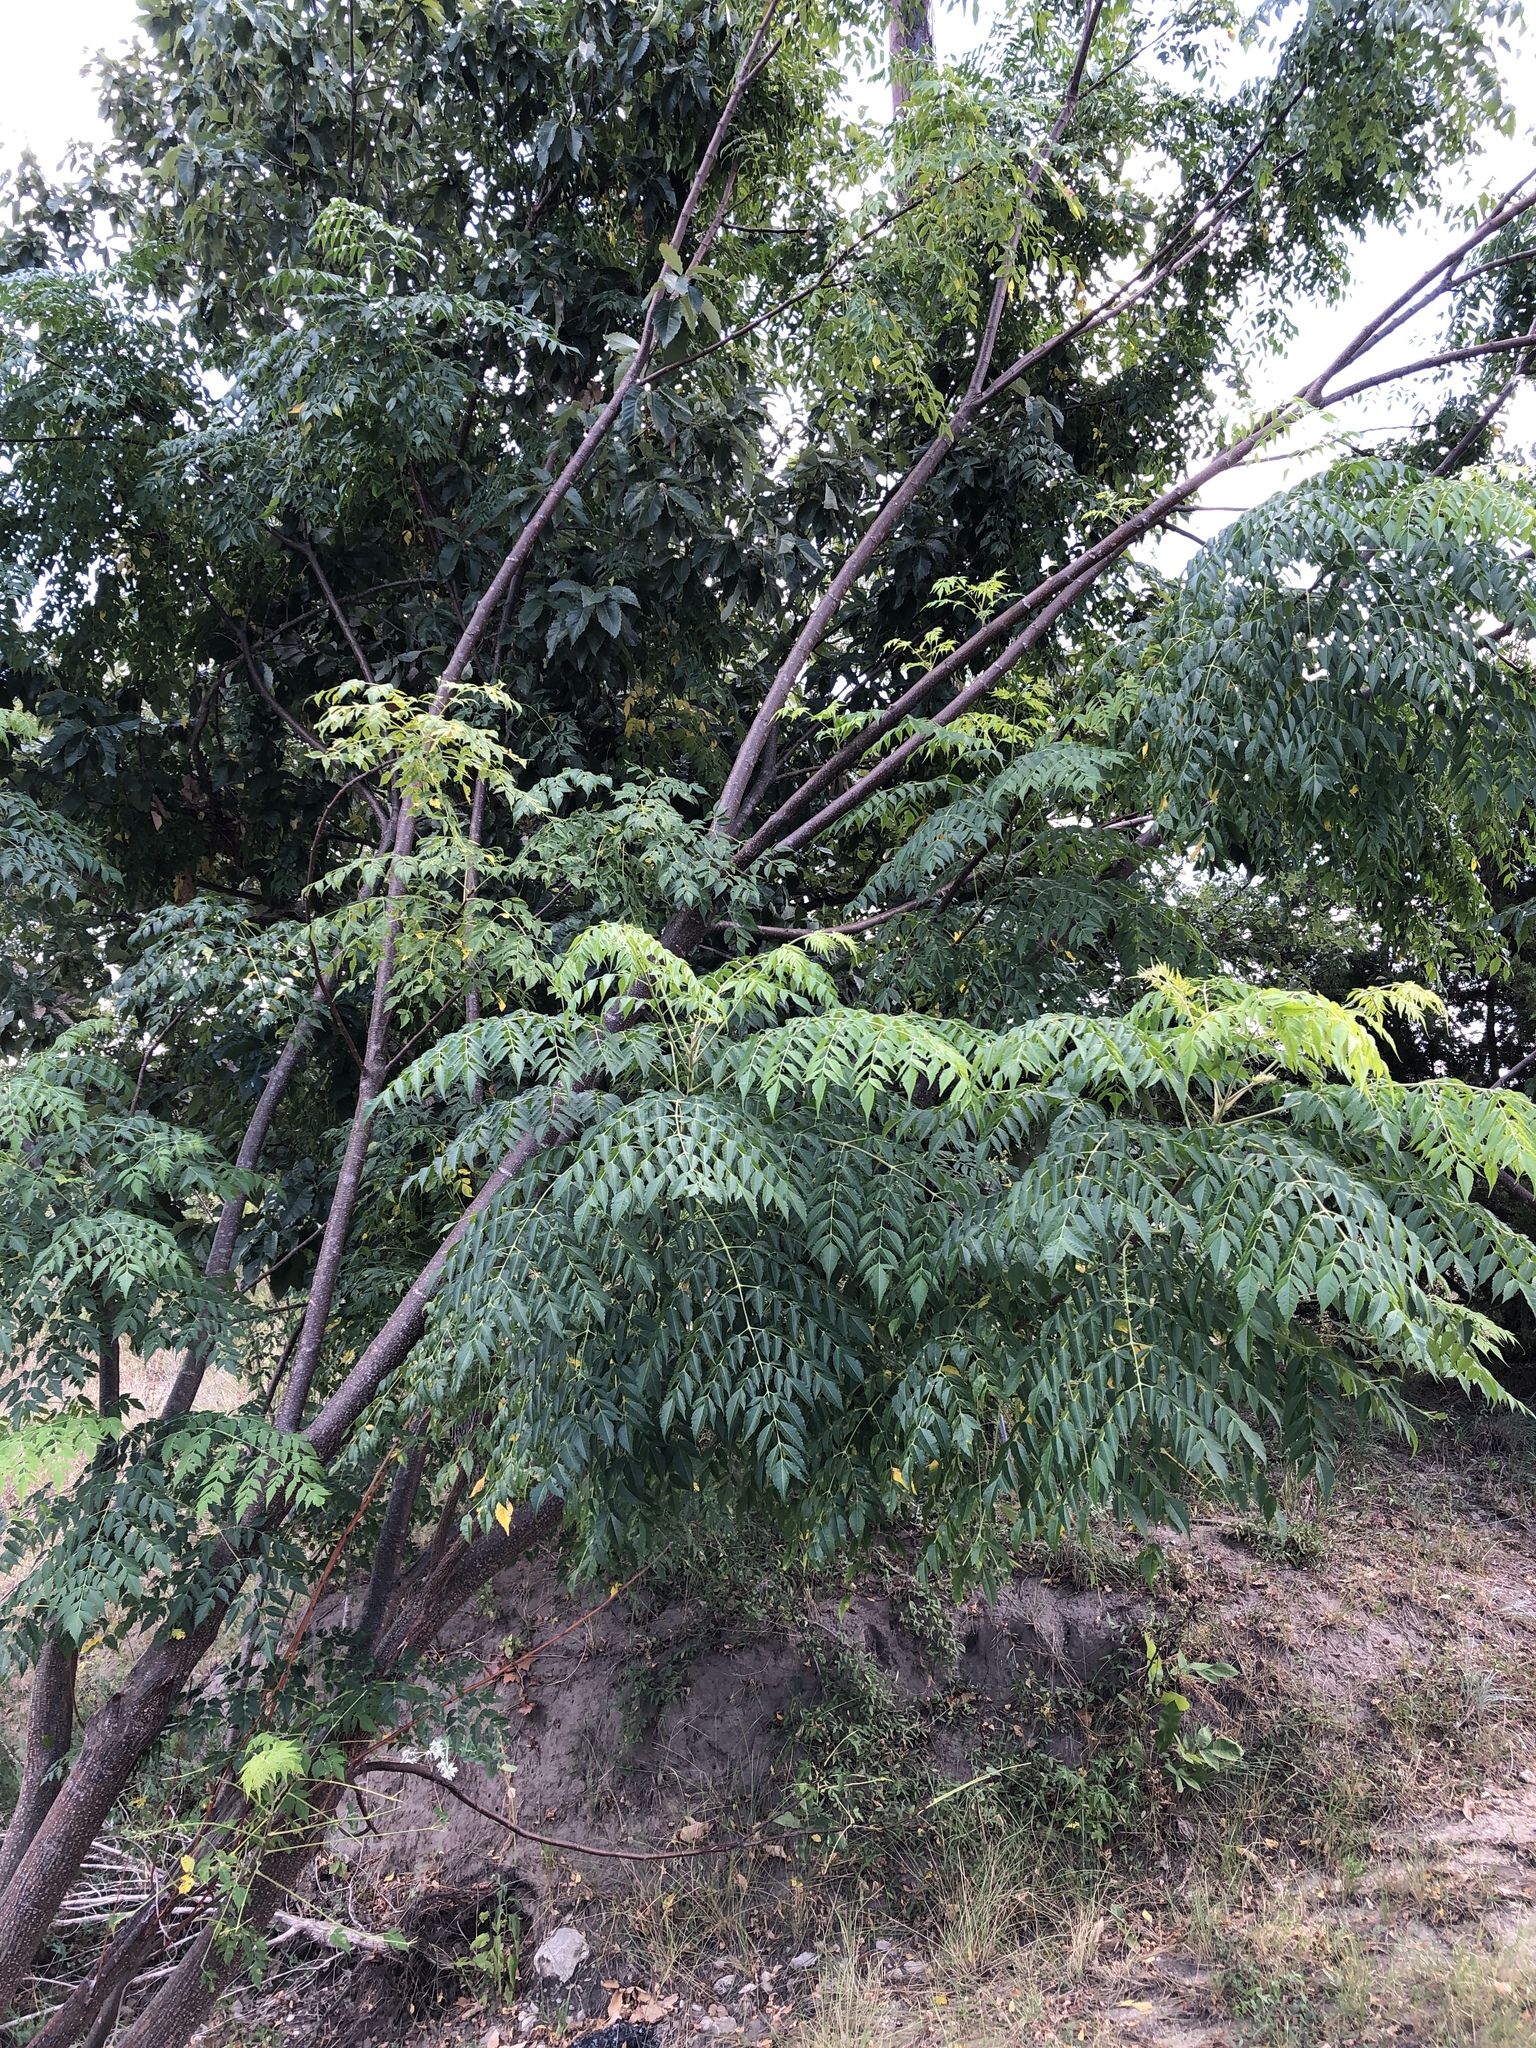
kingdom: Plantae
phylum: Tracheophyta
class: Magnoliopsida
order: Sapindales
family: Meliaceae
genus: Melia
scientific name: Melia azedarach
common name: Chinaberrytree
